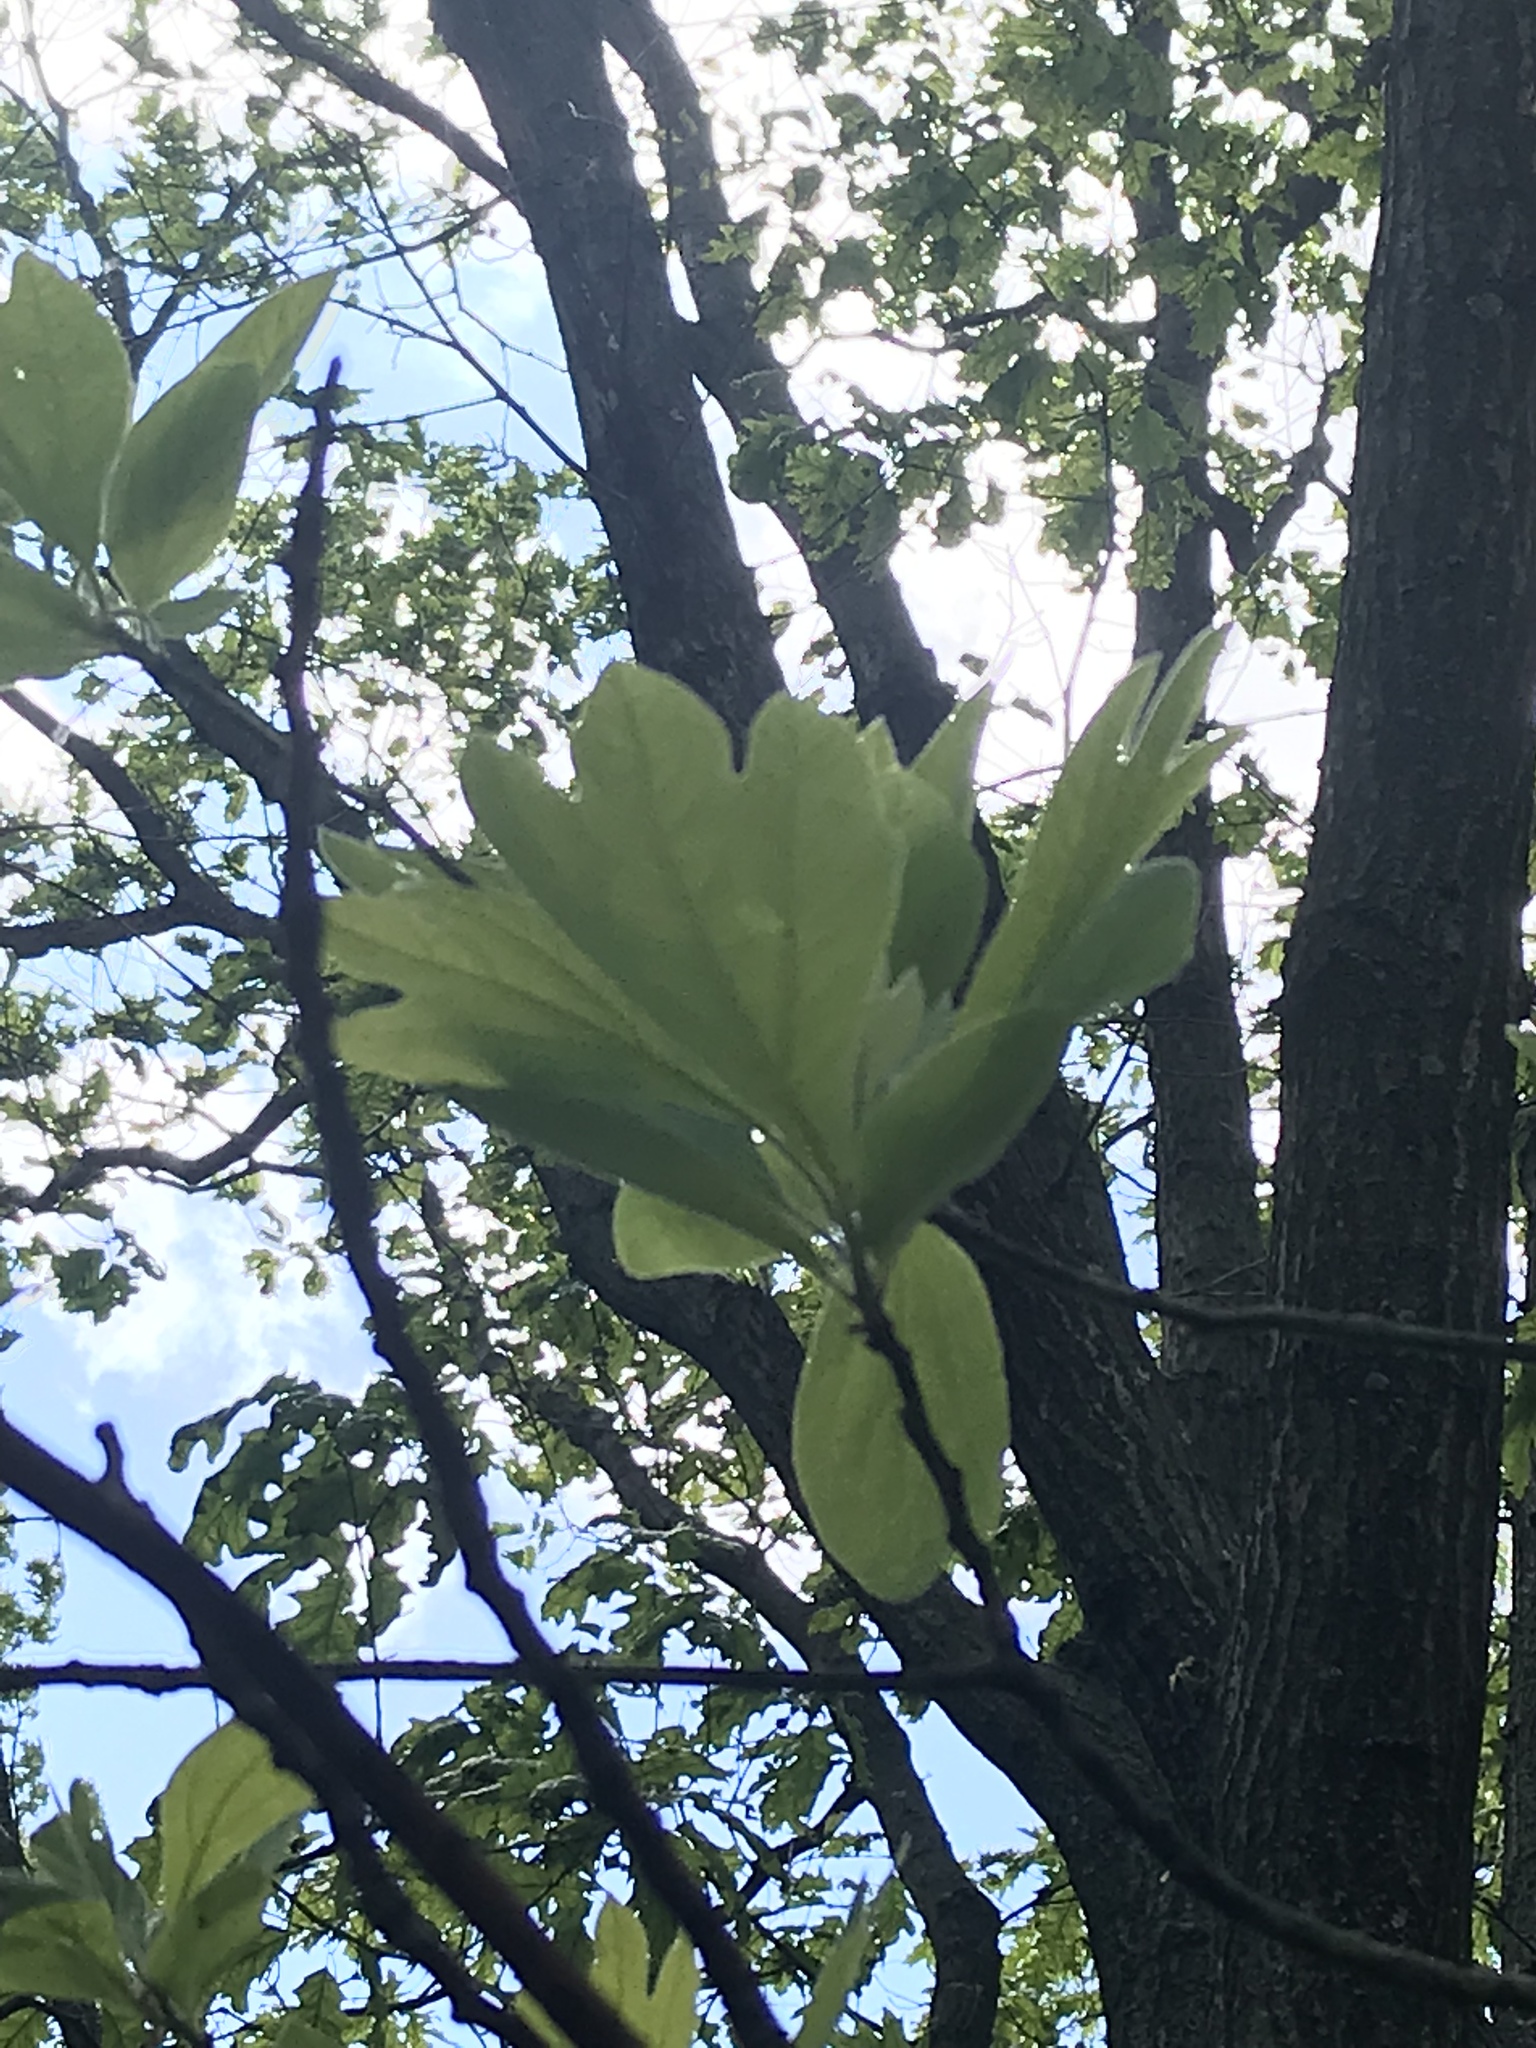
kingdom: Plantae
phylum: Tracheophyta
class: Magnoliopsida
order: Laurales
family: Lauraceae
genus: Sassafras
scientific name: Sassafras albidum
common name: Sassafras
